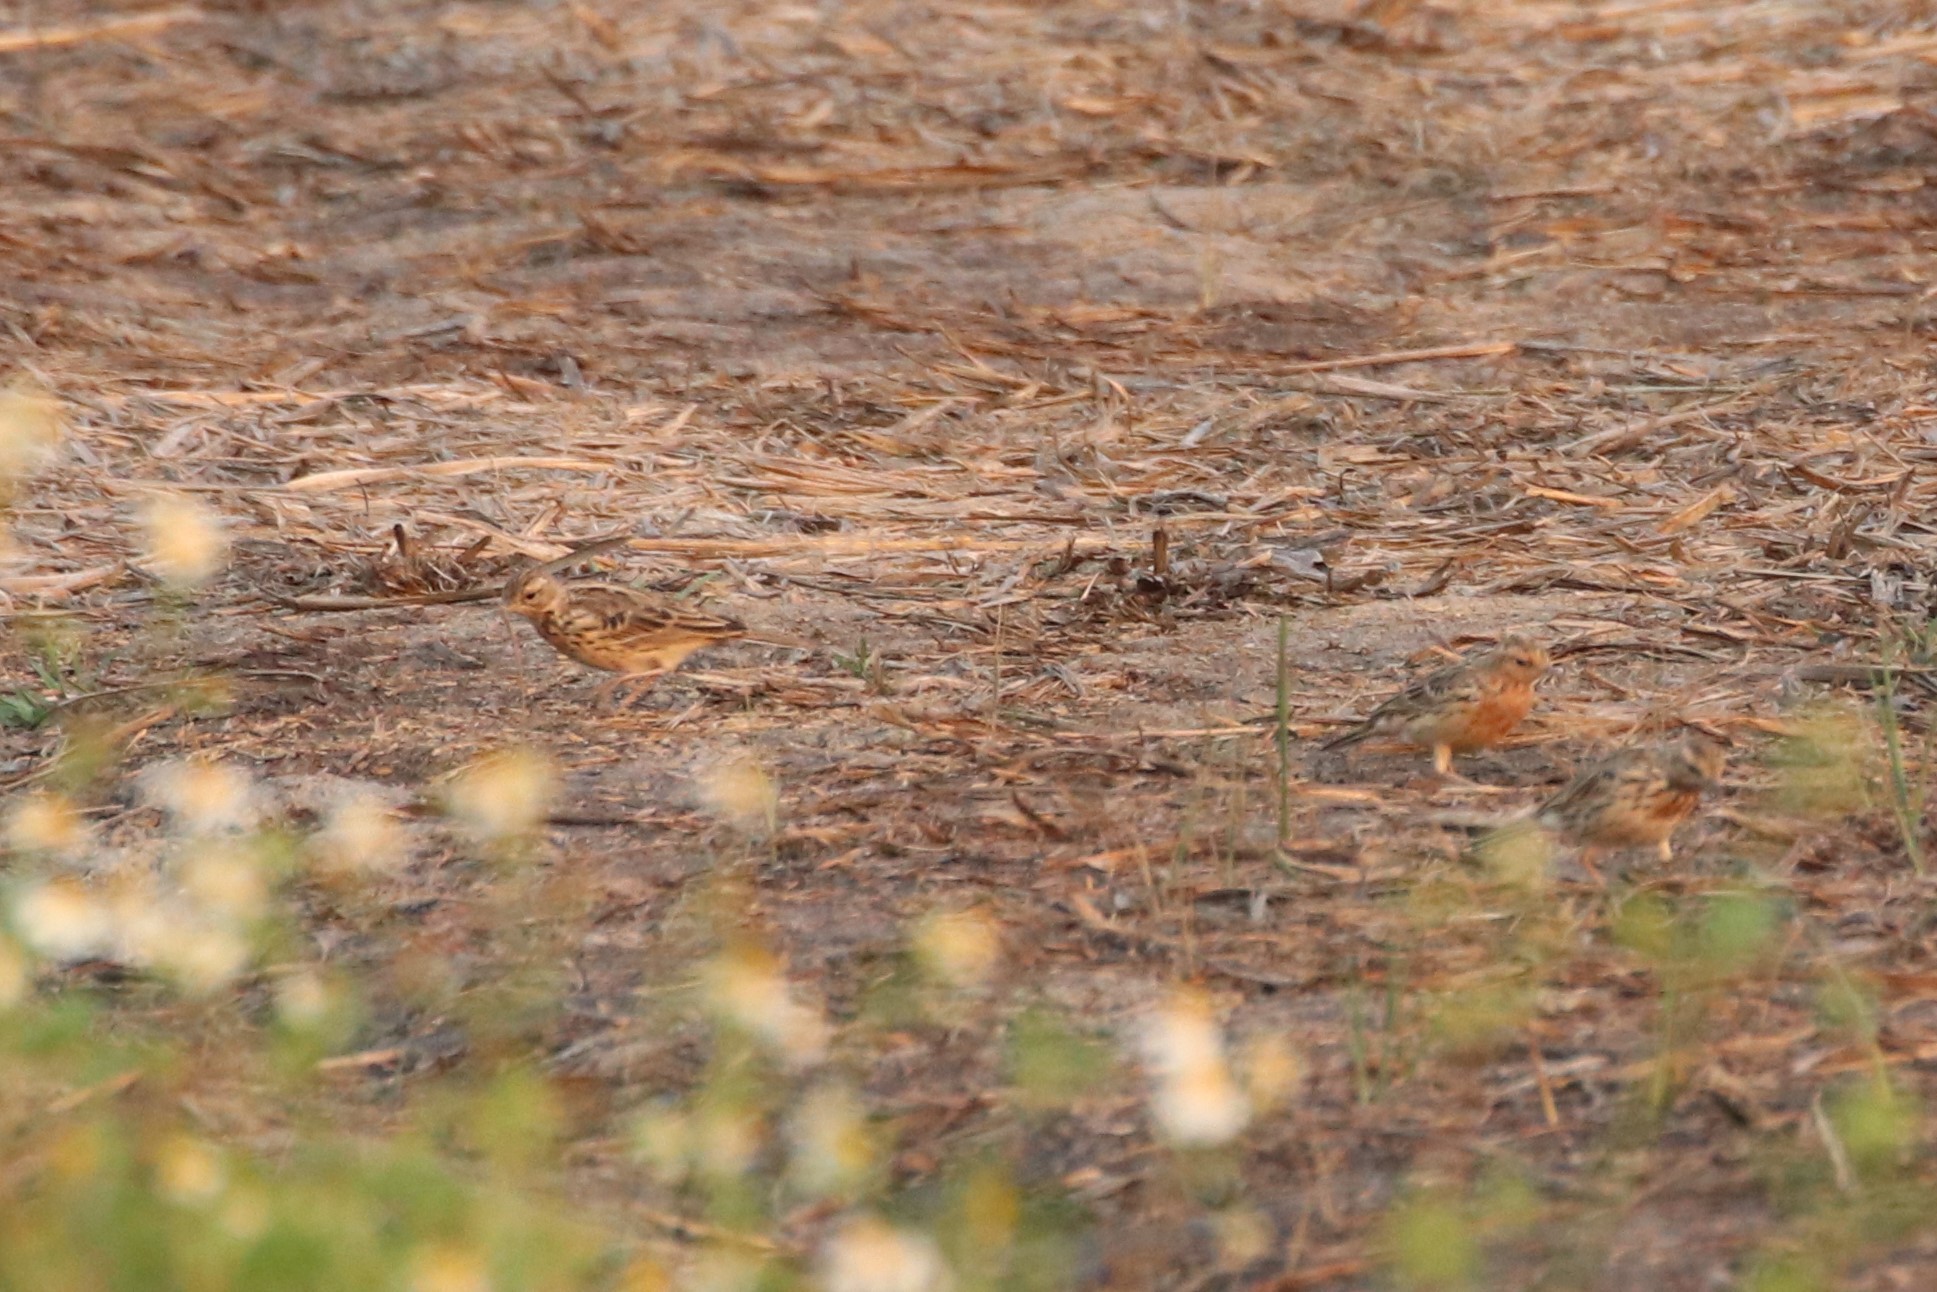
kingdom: Animalia
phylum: Chordata
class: Aves
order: Passeriformes
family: Motacillidae
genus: Anthus
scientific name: Anthus cervinus
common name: Red-throated pipit
